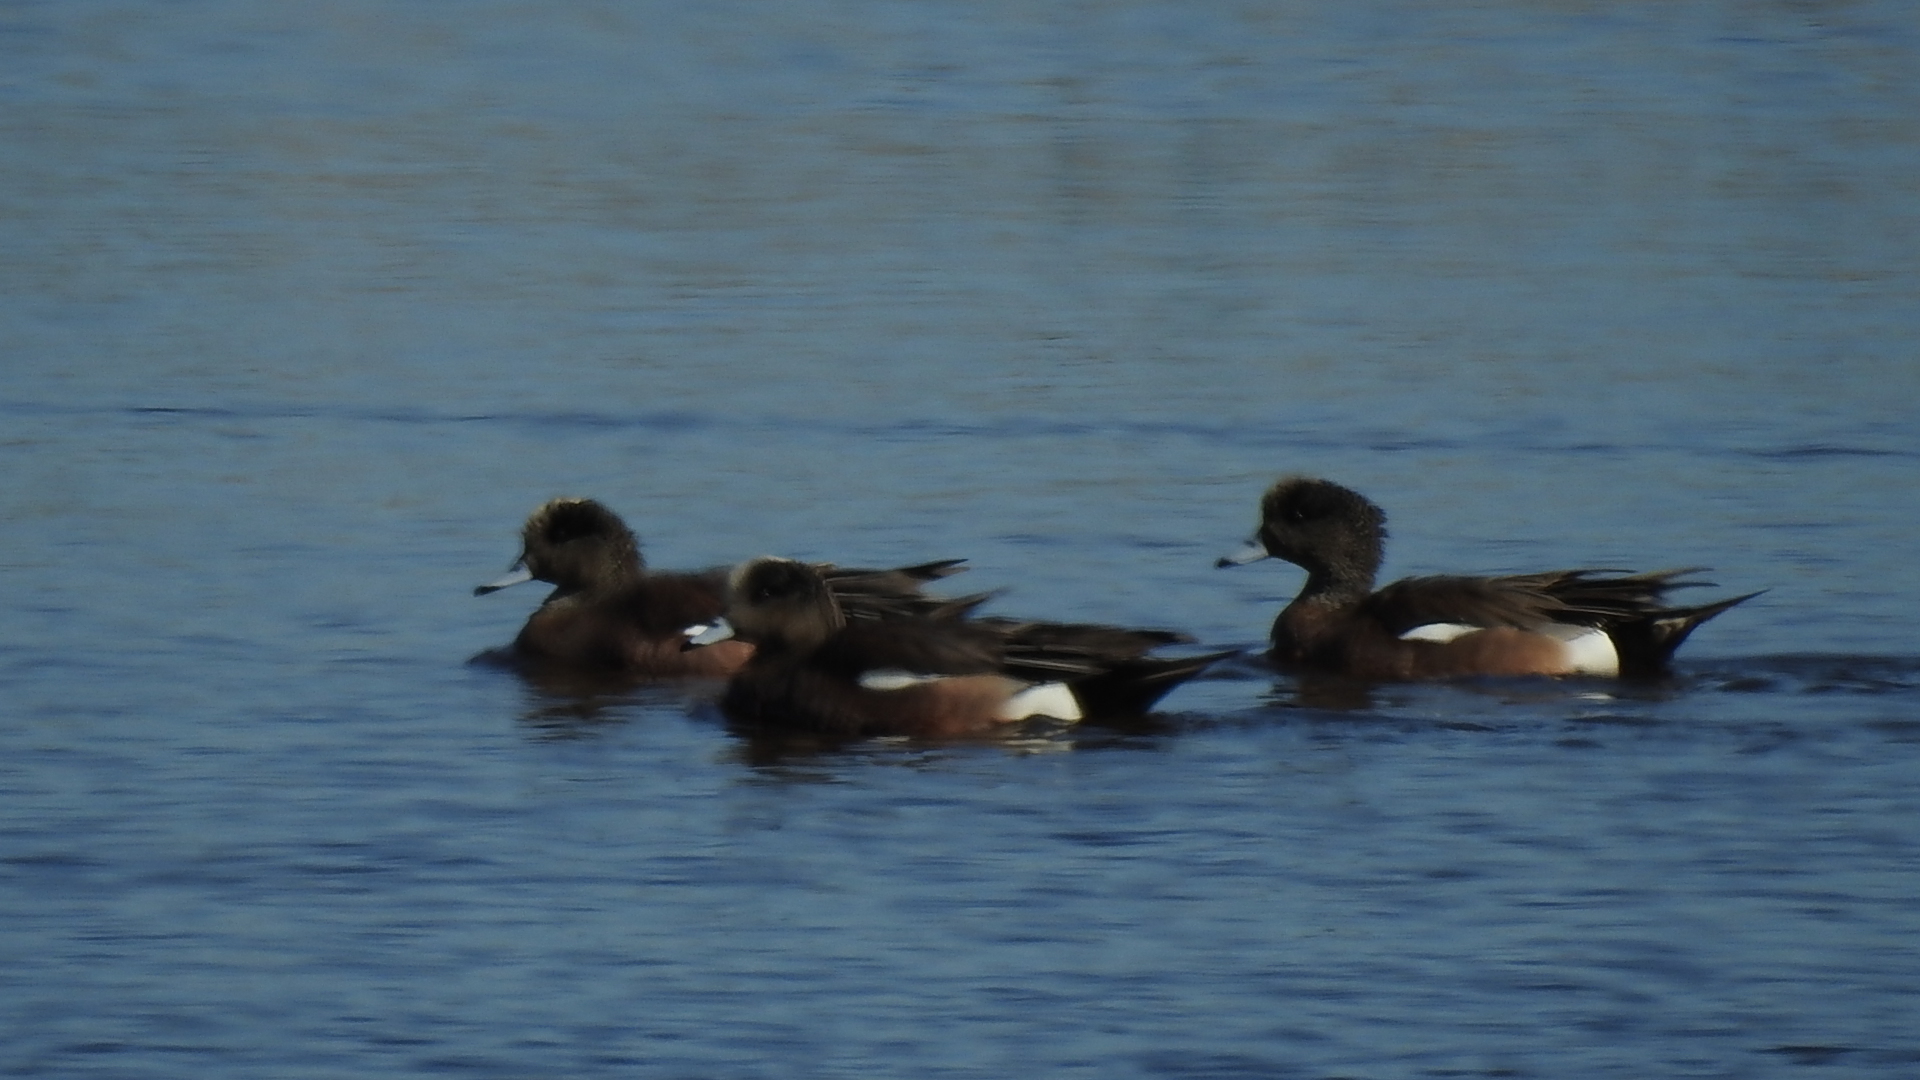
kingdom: Animalia
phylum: Chordata
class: Aves
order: Anseriformes
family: Anatidae
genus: Mareca
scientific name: Mareca americana
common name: American wigeon
